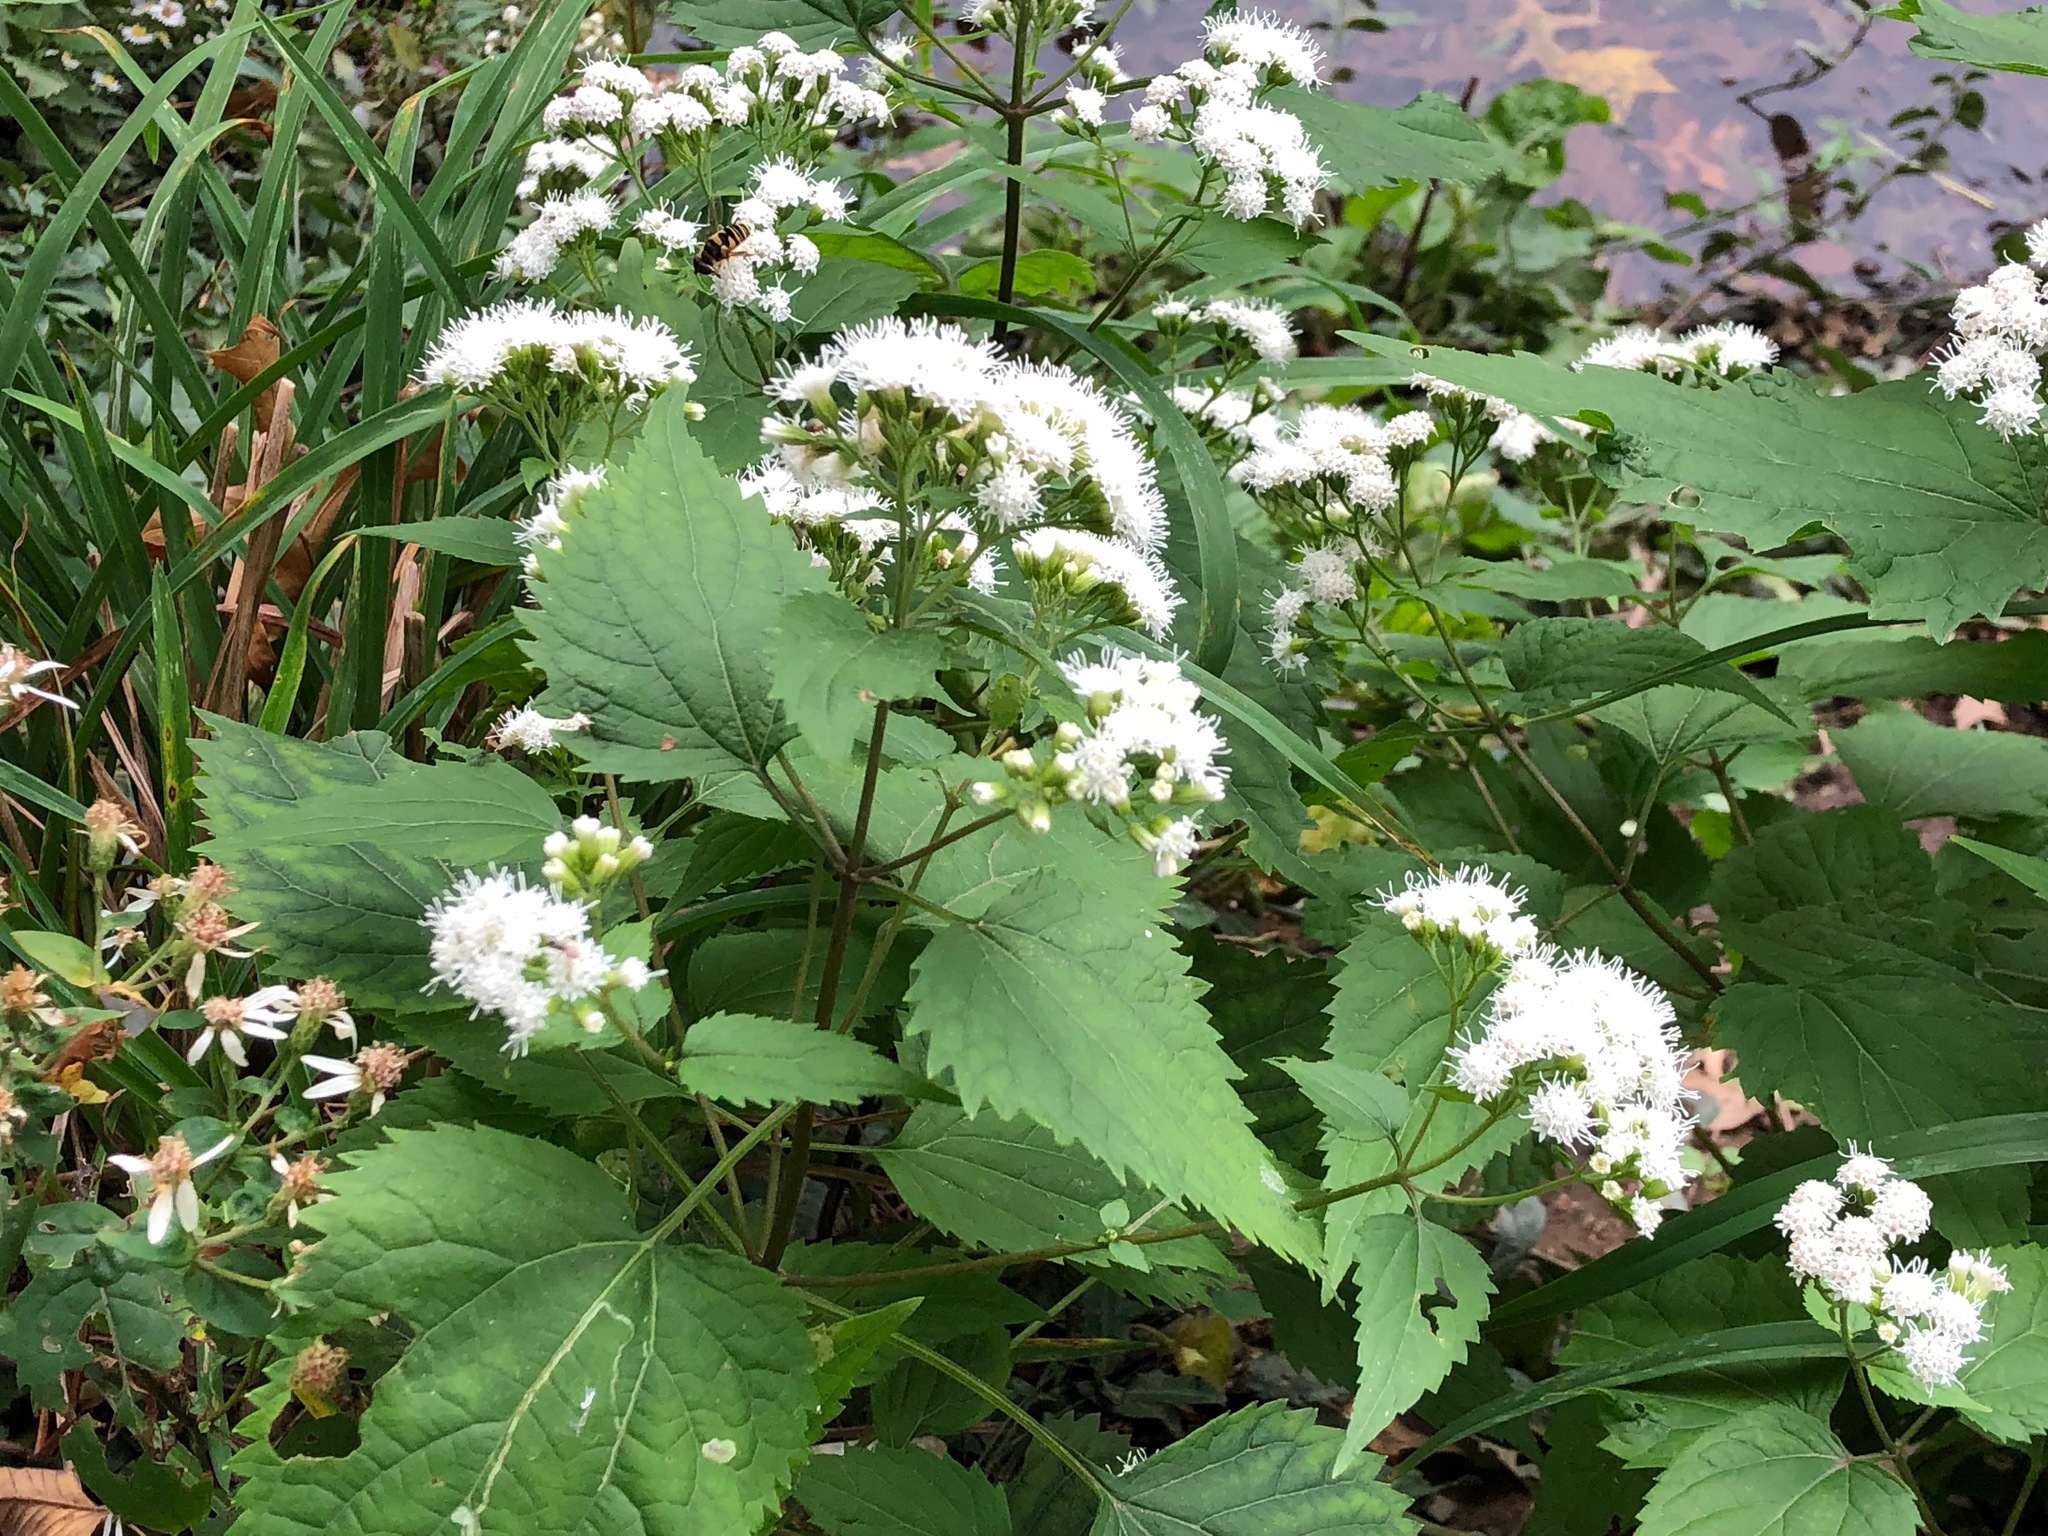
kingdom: Plantae
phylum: Tracheophyta
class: Magnoliopsida
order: Asterales
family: Asteraceae
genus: Ageratina
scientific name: Ageratina altissima
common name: White snakeroot
